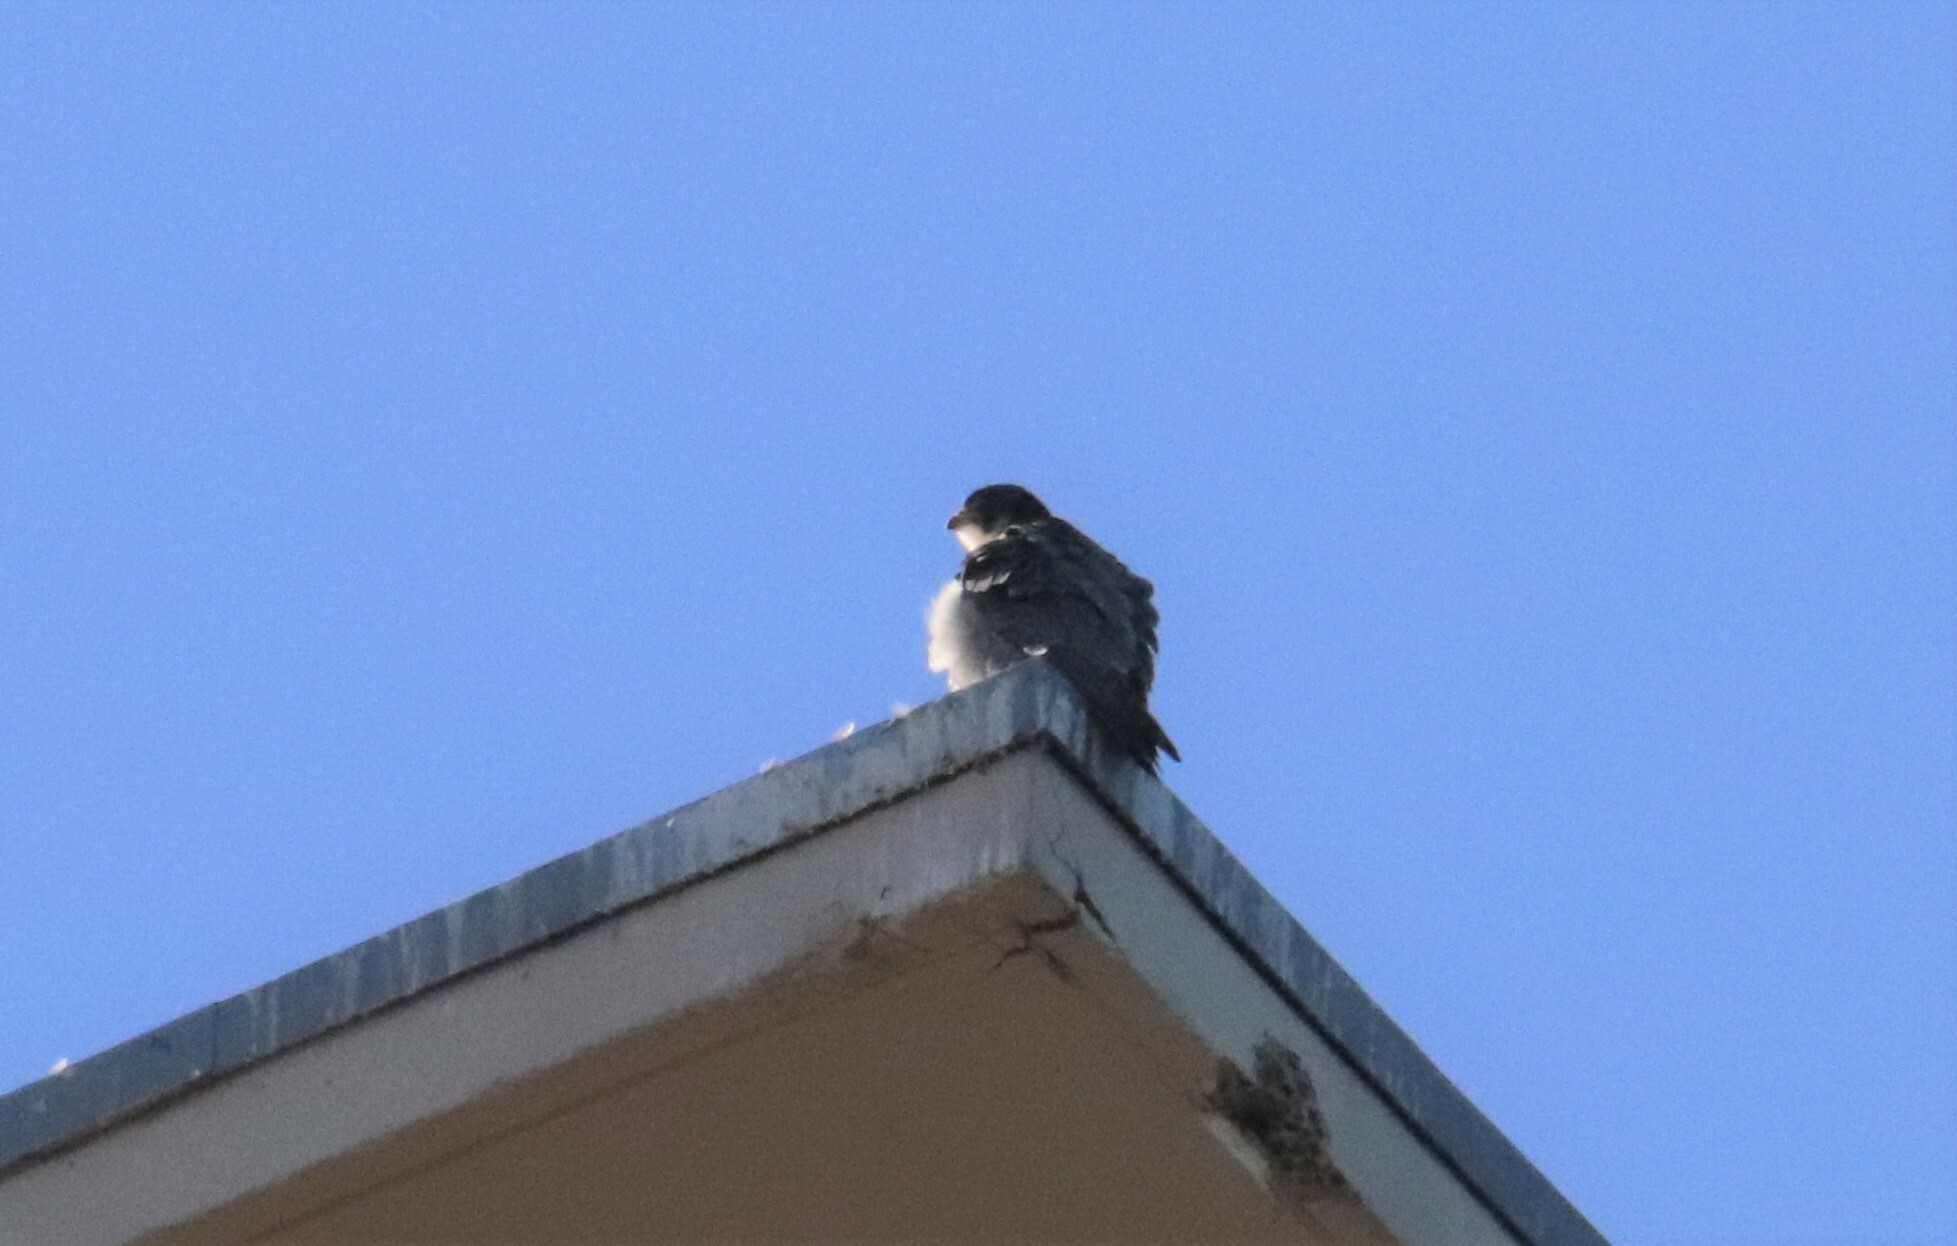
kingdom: Animalia
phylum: Chordata
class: Aves
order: Falconiformes
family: Falconidae
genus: Falco
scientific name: Falco peregrinus
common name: Peregrine falcon
